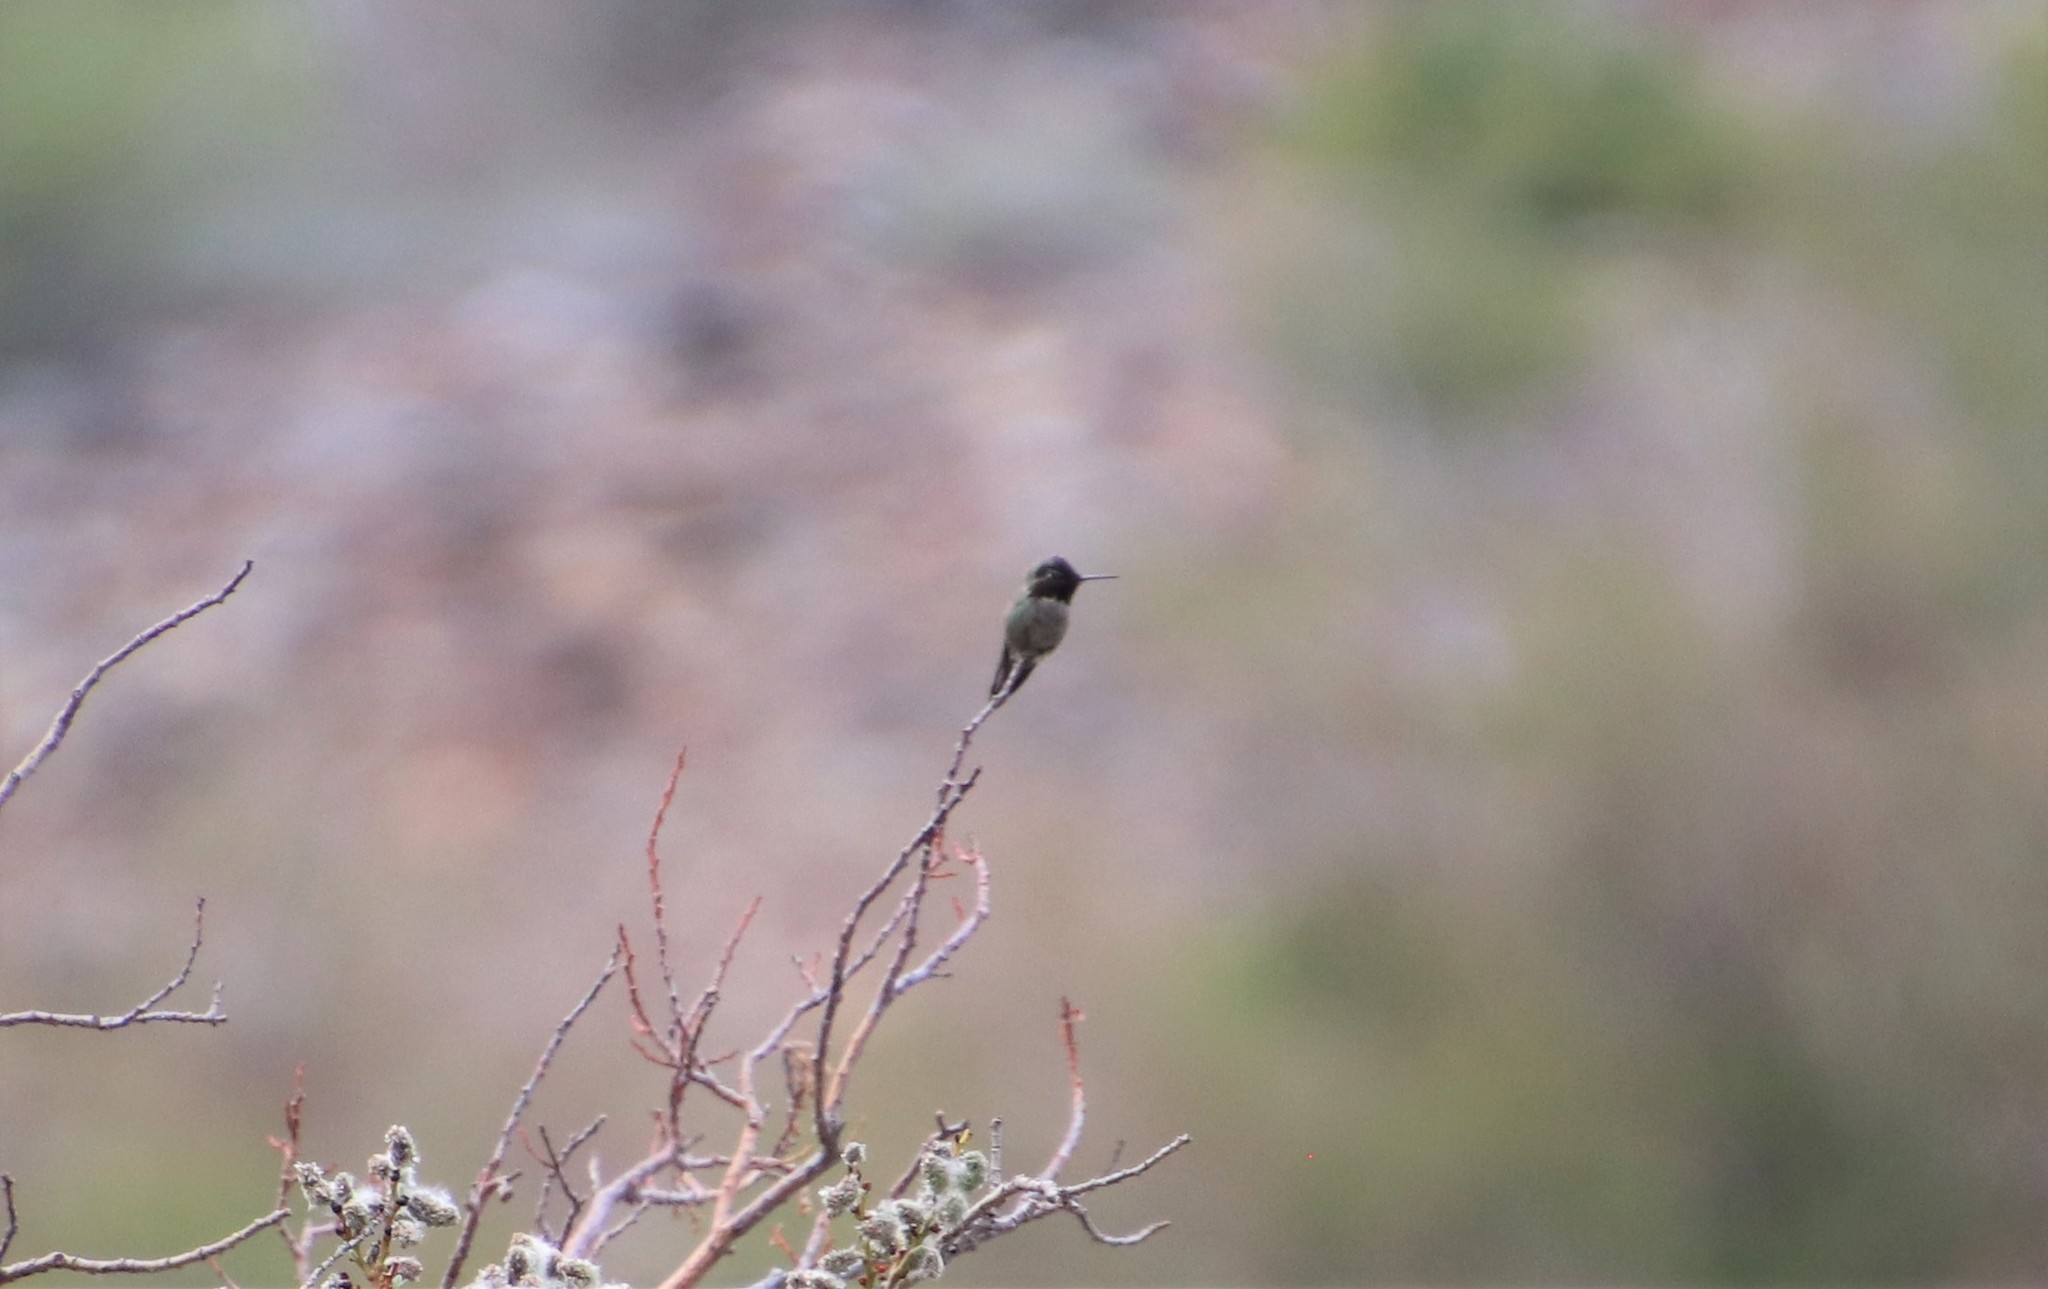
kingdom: Animalia
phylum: Chordata
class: Aves
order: Apodiformes
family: Trochilidae
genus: Calypte
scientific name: Calypte anna
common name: Anna's hummingbird
